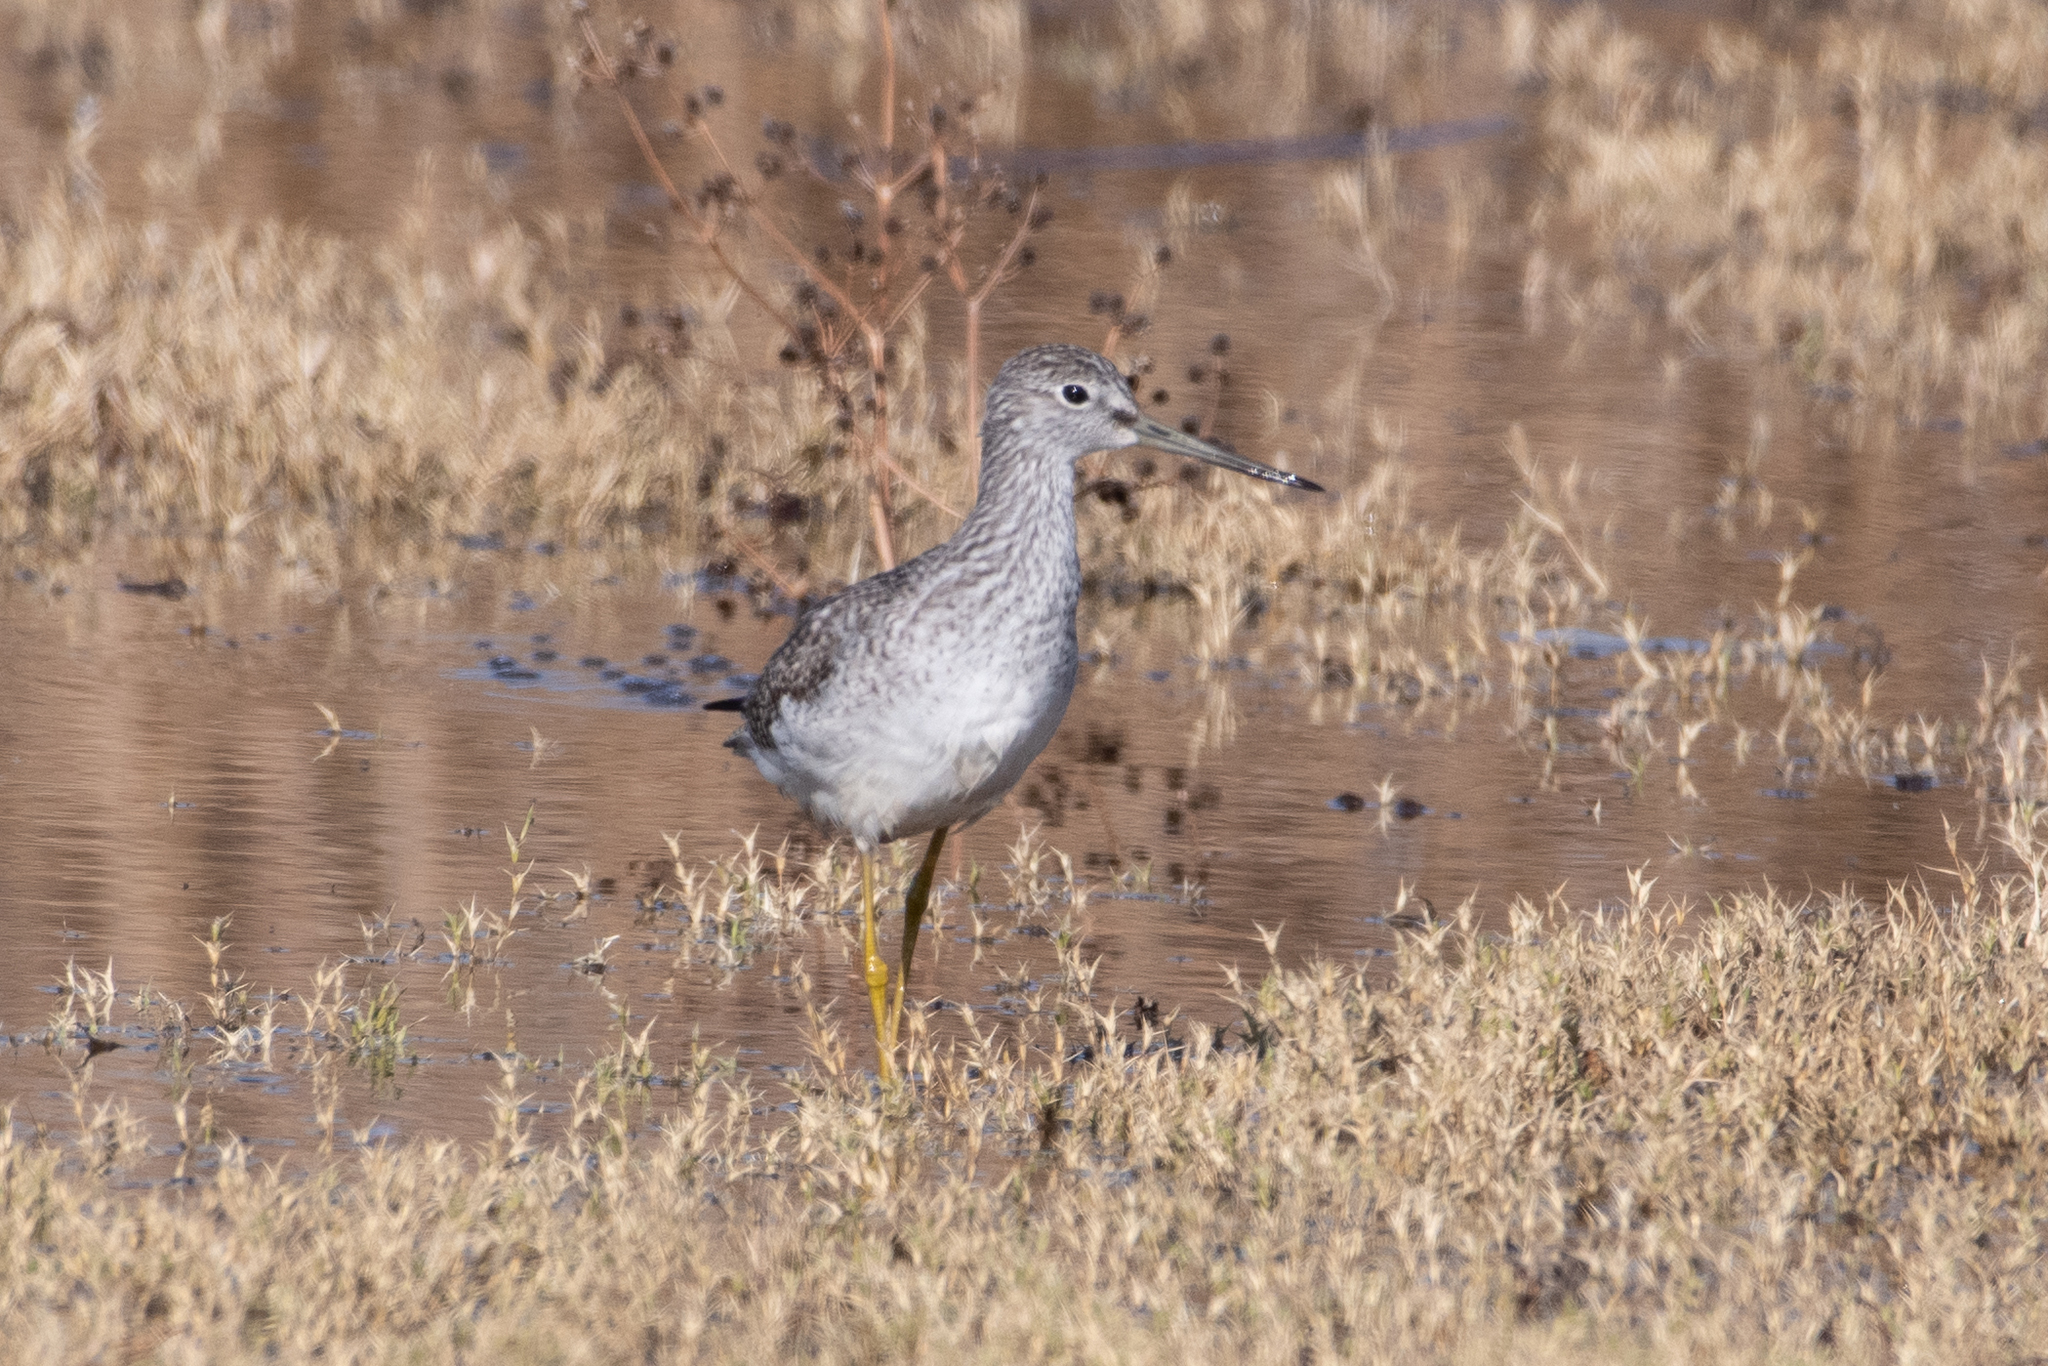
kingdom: Animalia
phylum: Chordata
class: Aves
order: Charadriiformes
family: Scolopacidae
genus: Tringa
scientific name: Tringa melanoleuca
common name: Greater yellowlegs
